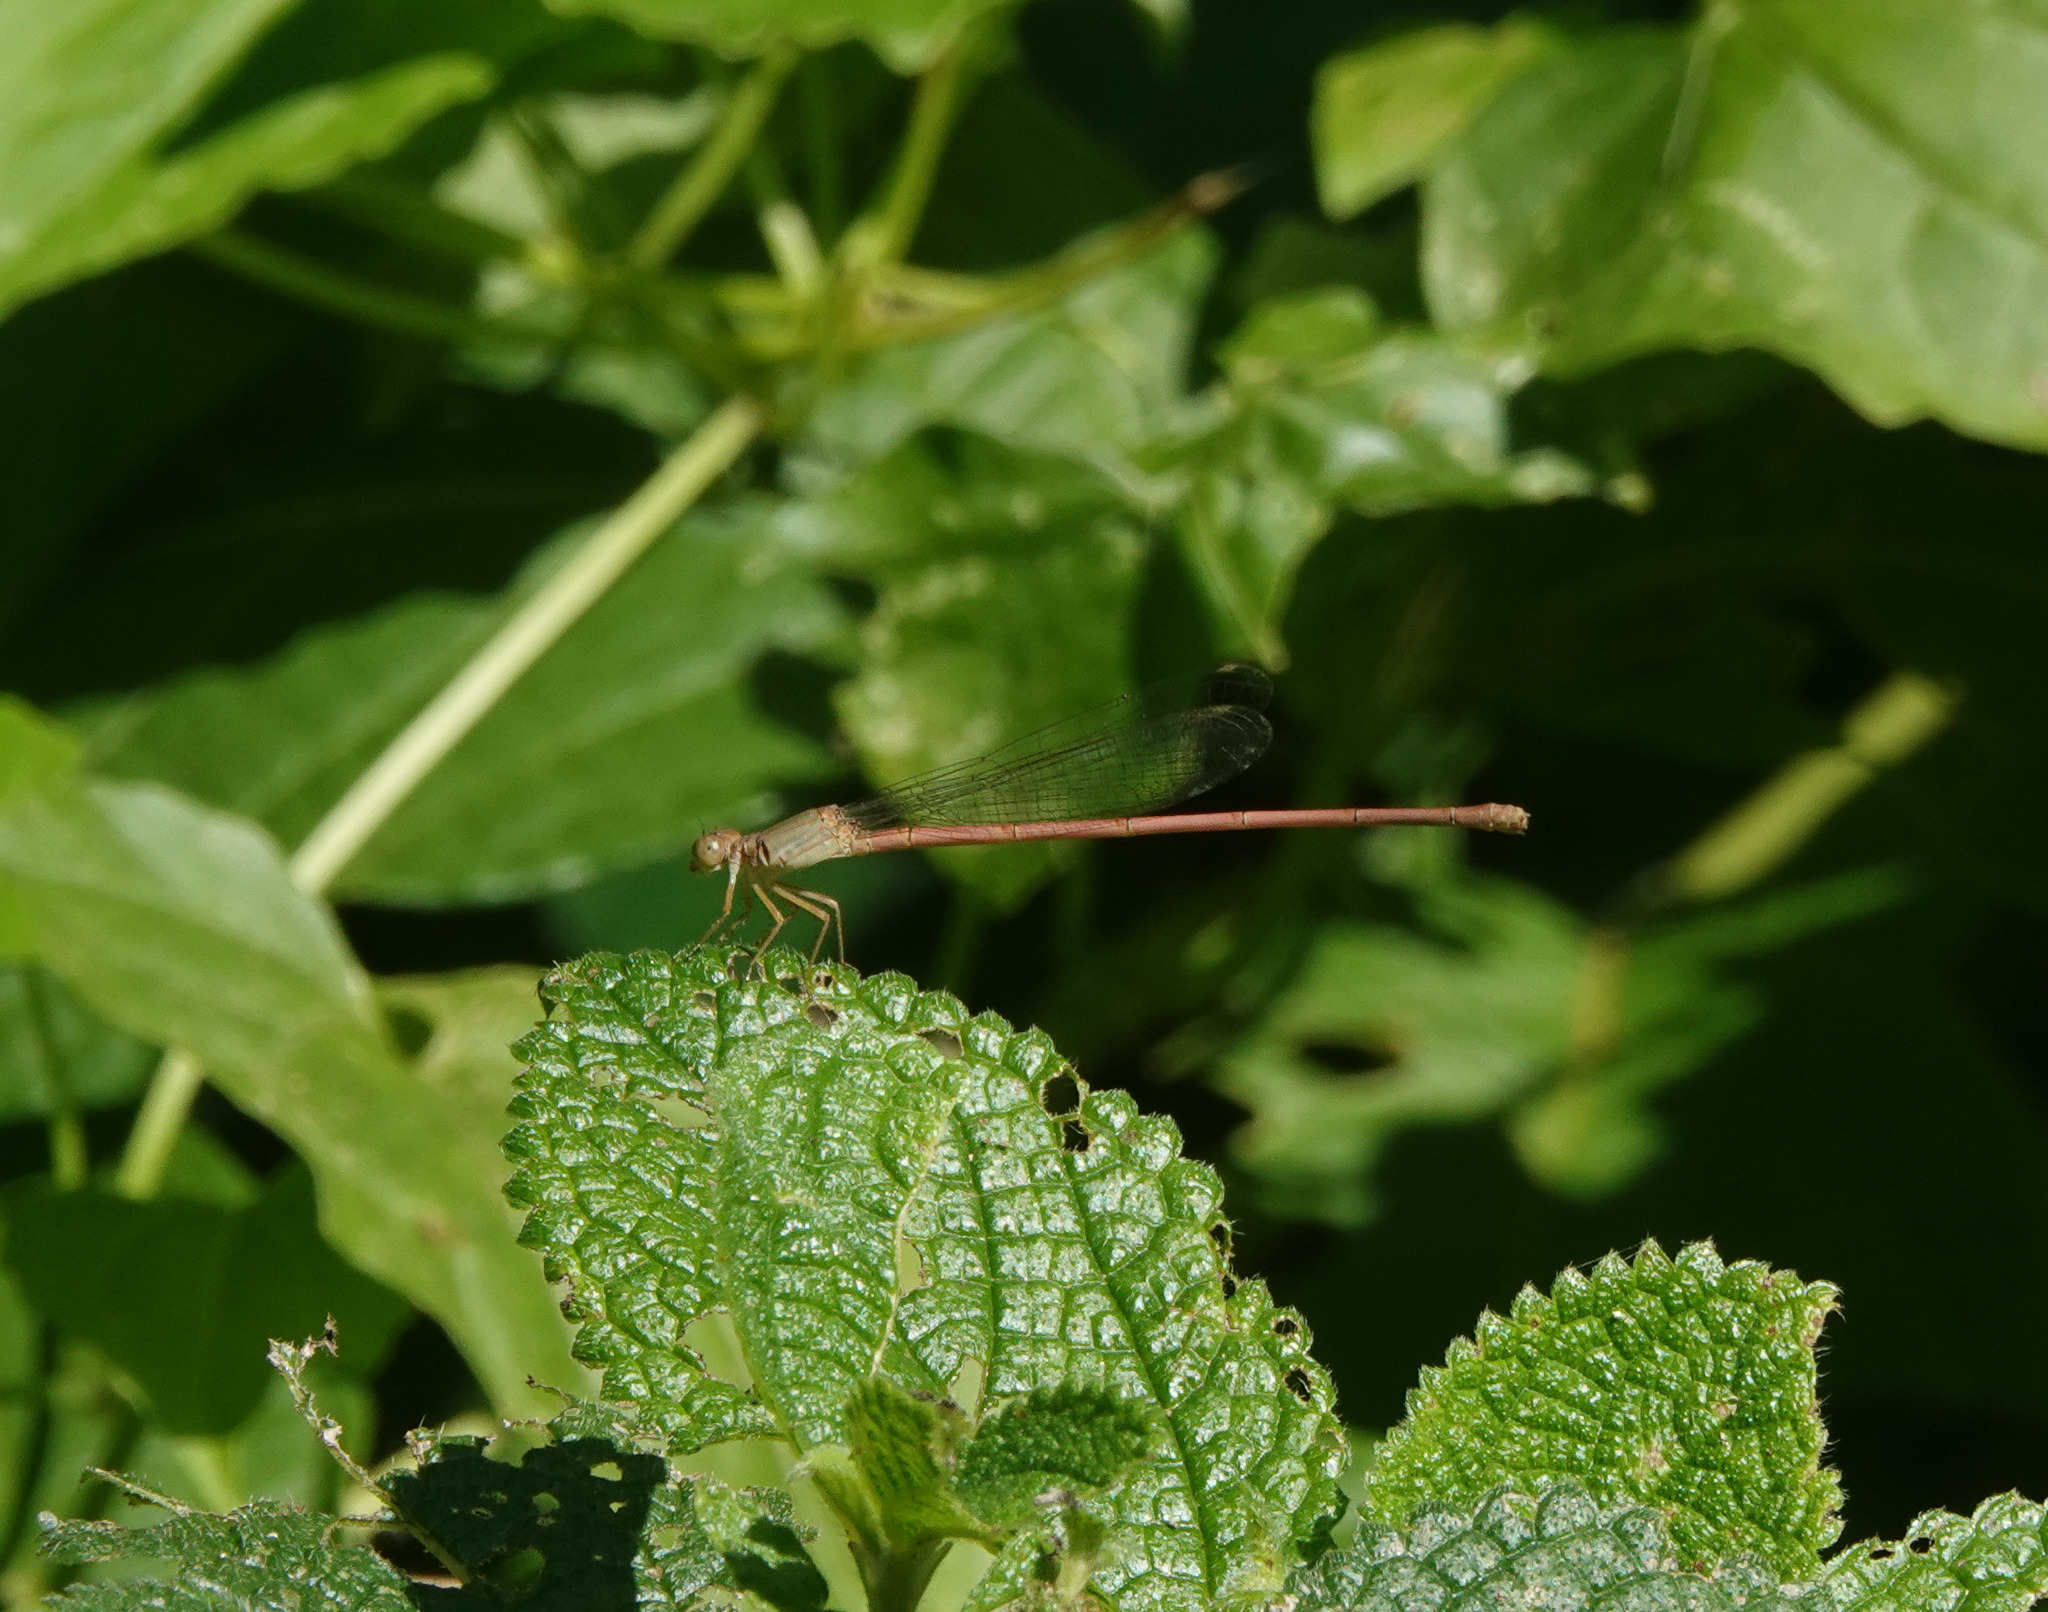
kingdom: Animalia
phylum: Arthropoda
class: Insecta
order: Odonata
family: Coenagrionidae
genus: Ceriagrion
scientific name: Ceriagrion olivaceum
